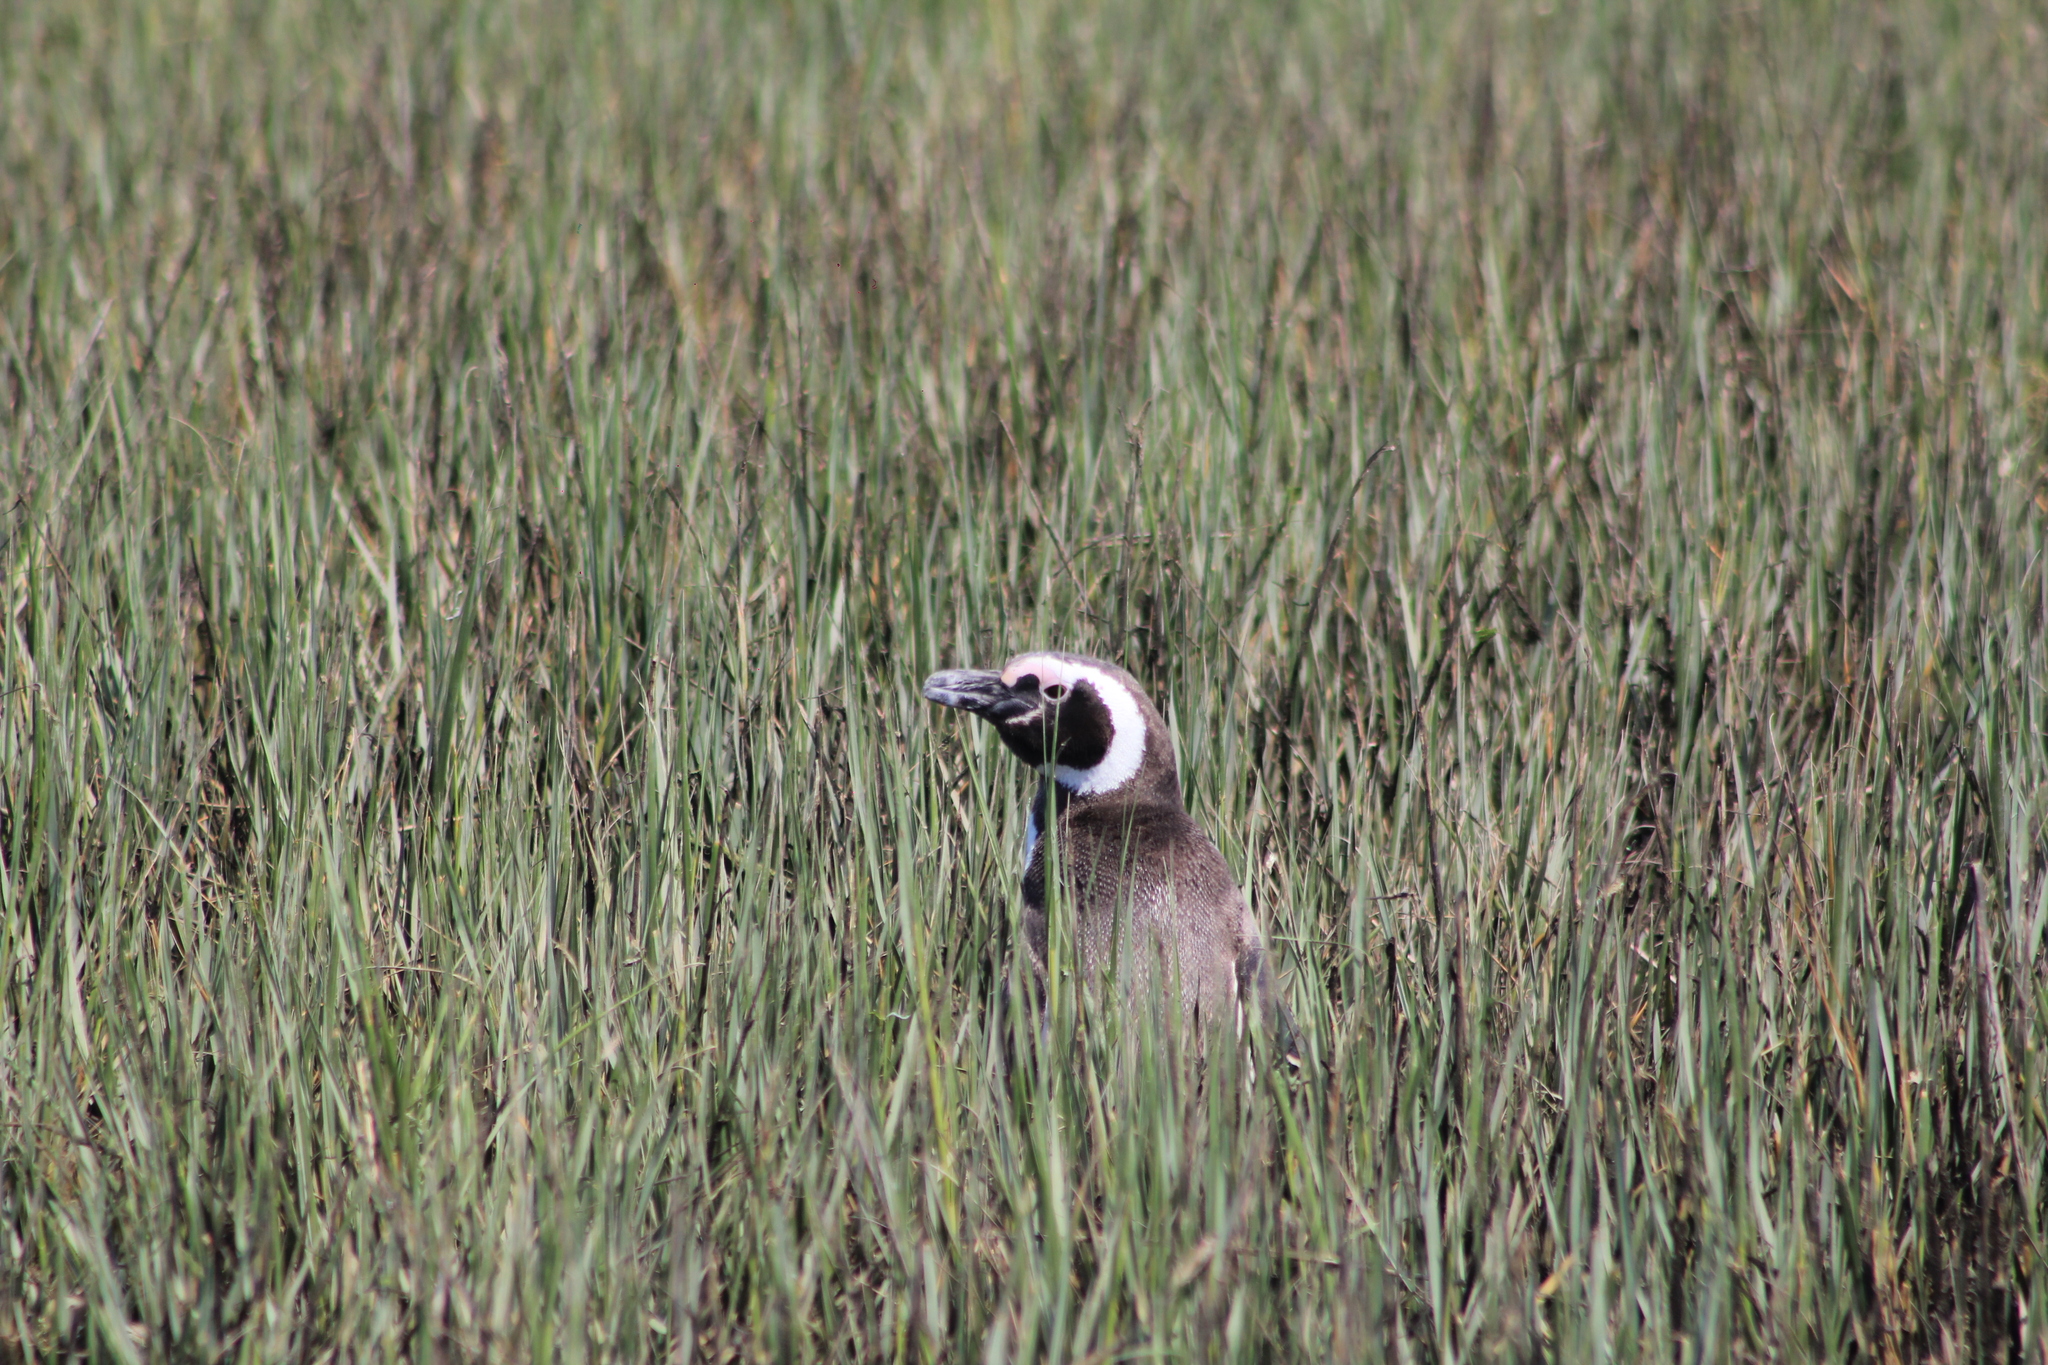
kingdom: Animalia
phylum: Chordata
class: Aves
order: Sphenisciformes
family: Spheniscidae
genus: Spheniscus
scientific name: Spheniscus magellanicus
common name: Magellanic penguin
